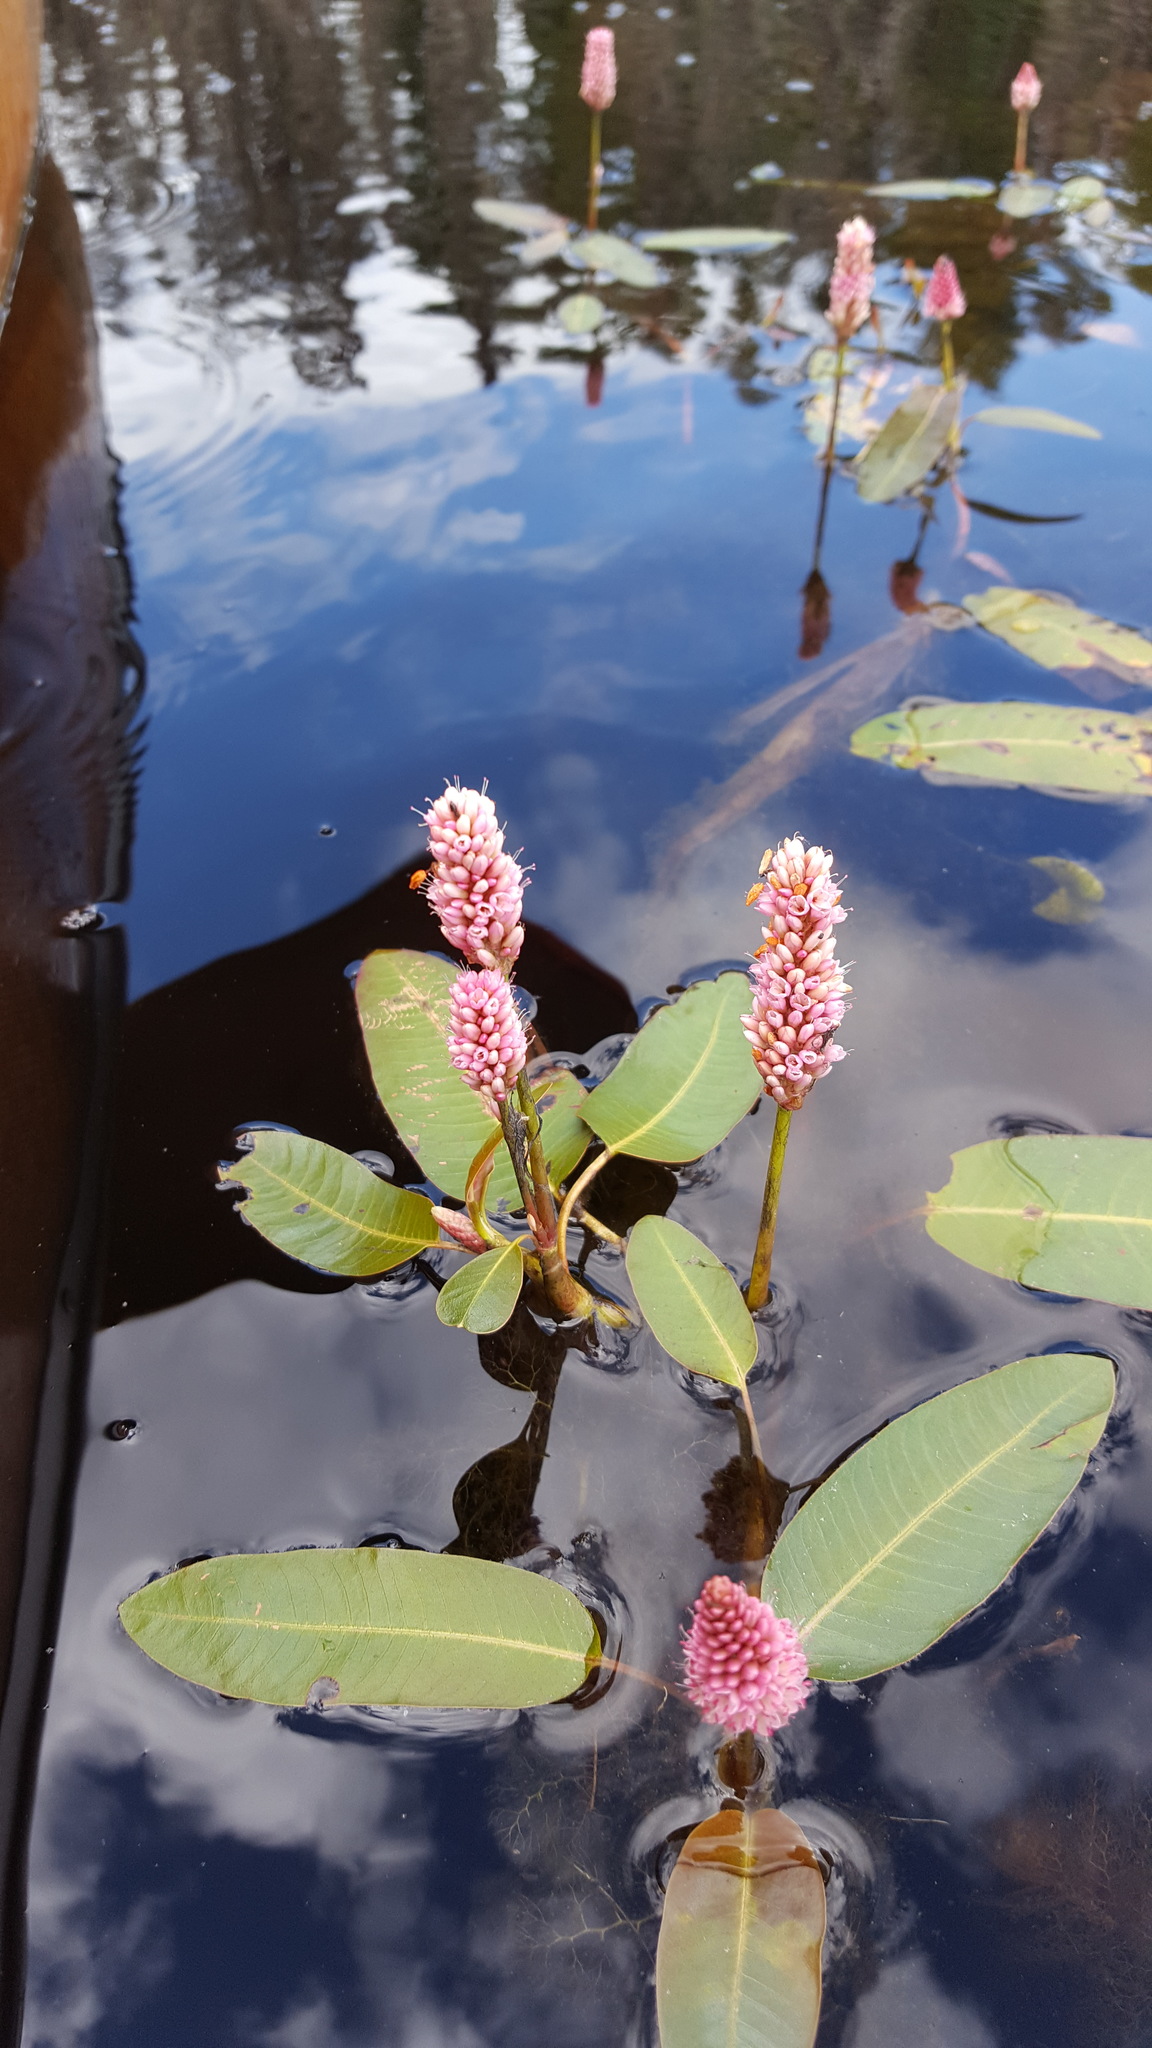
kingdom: Plantae
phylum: Tracheophyta
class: Magnoliopsida
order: Caryophyllales
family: Polygonaceae
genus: Persicaria
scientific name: Persicaria amphibia
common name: Amphibious bistort
